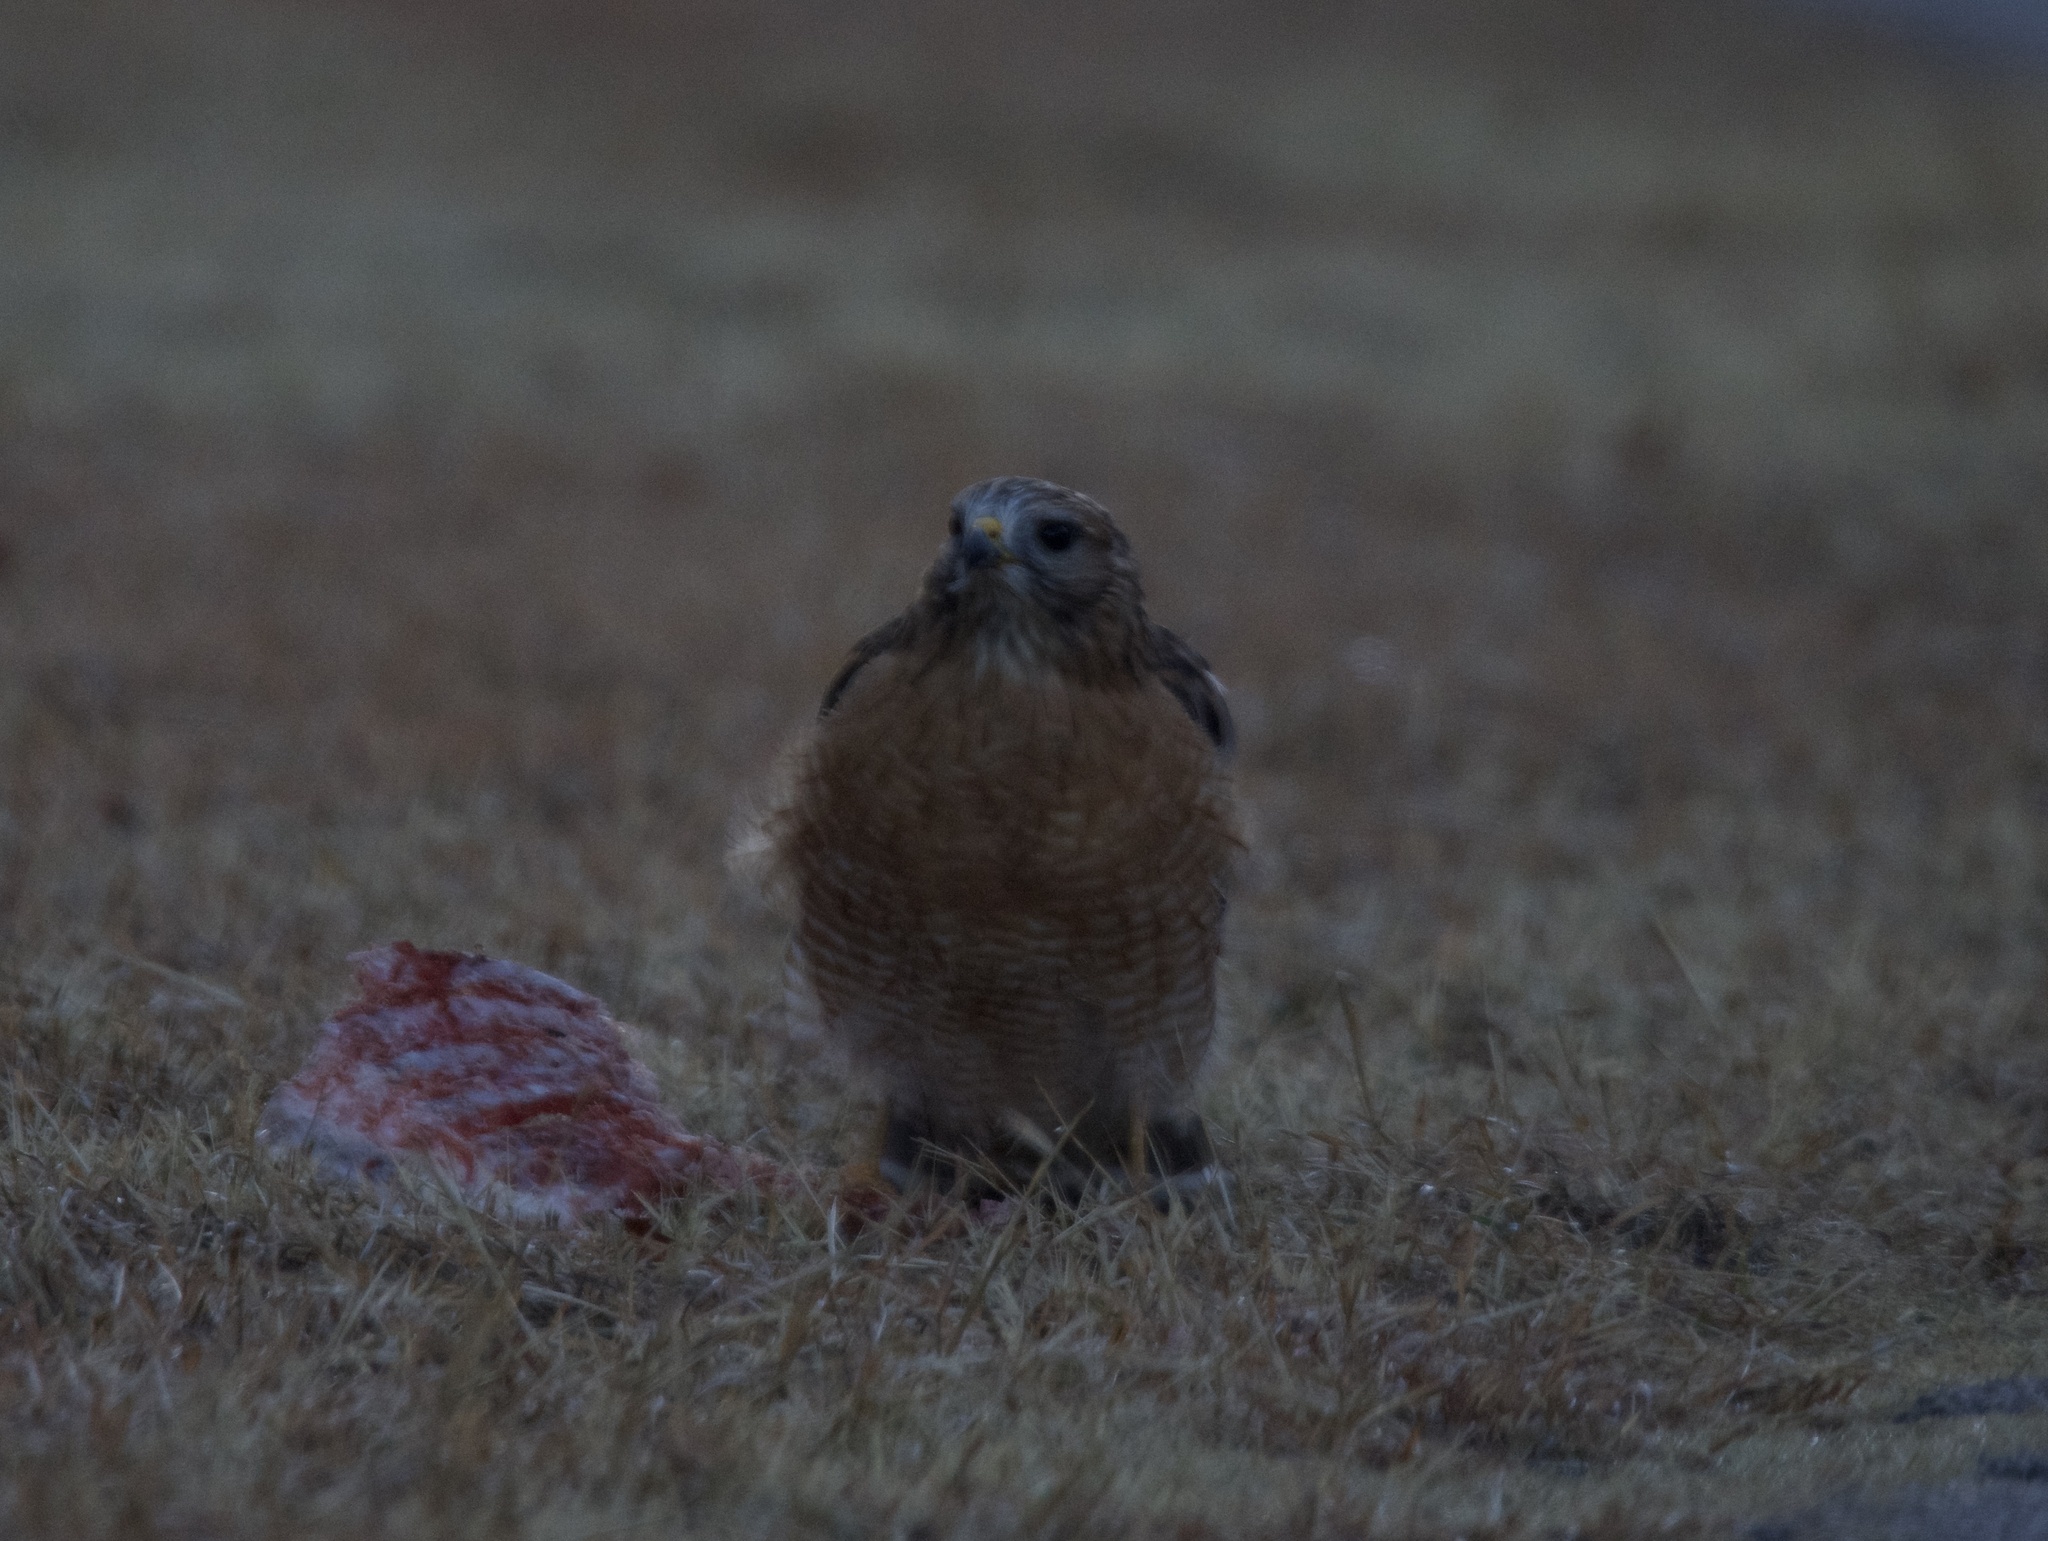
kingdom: Animalia
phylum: Chordata
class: Aves
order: Accipitriformes
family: Accipitridae
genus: Buteo
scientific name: Buteo lineatus
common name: Red-shouldered hawk
